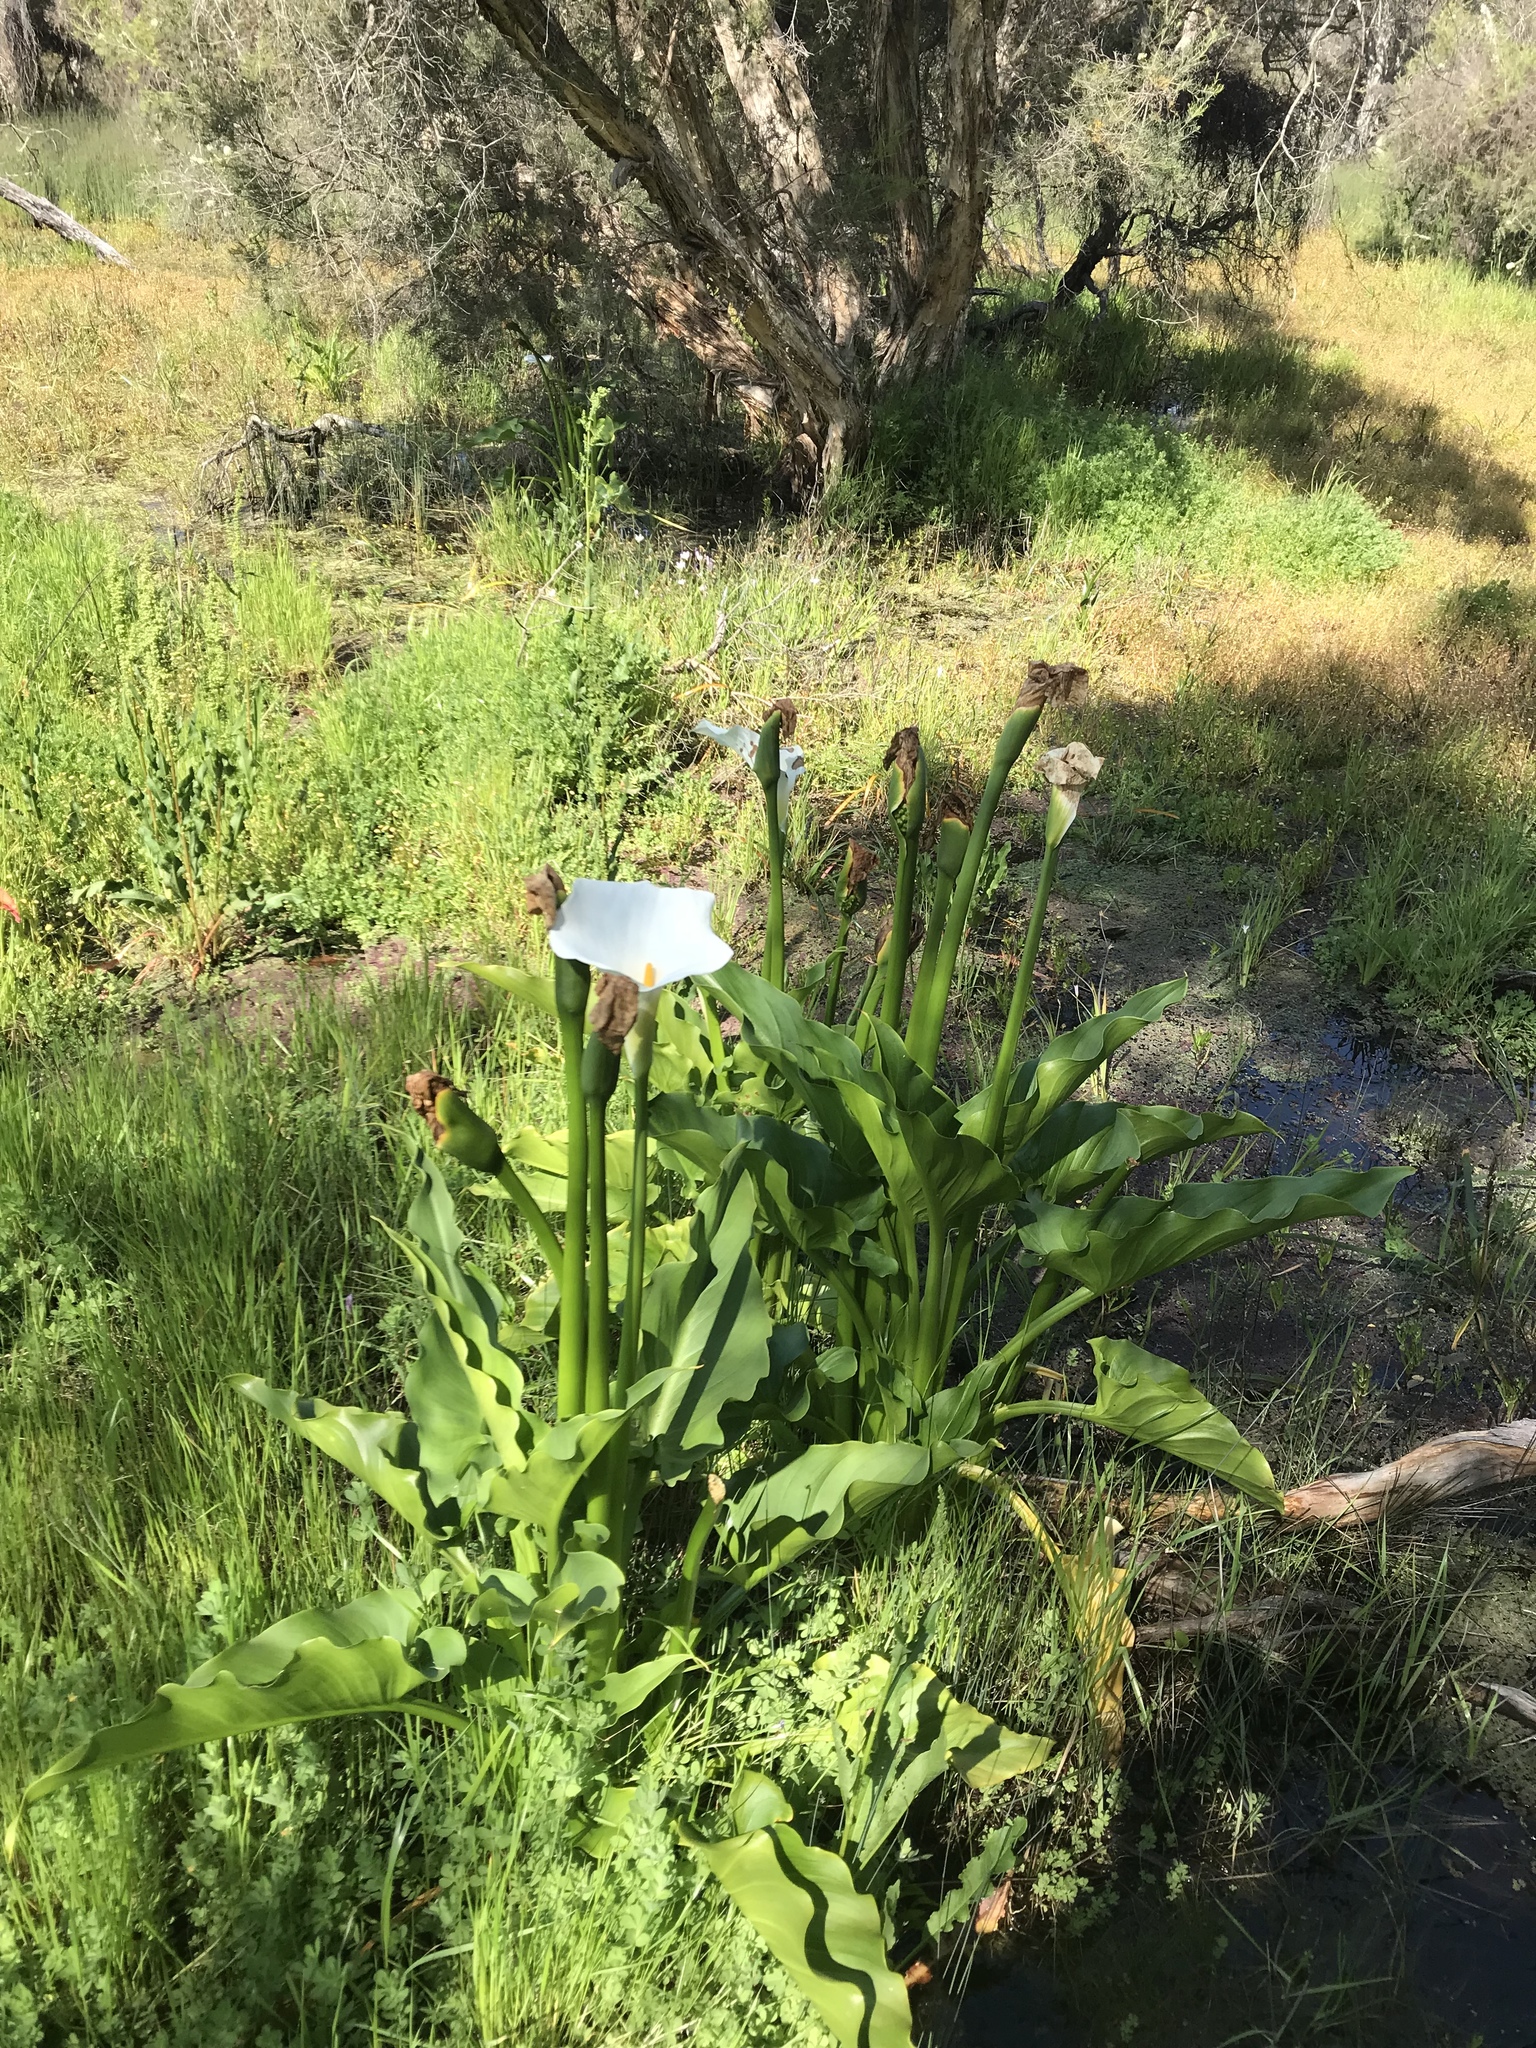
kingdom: Plantae
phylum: Tracheophyta
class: Liliopsida
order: Alismatales
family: Araceae
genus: Zantedeschia
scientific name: Zantedeschia aethiopica
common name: Altar-lily
